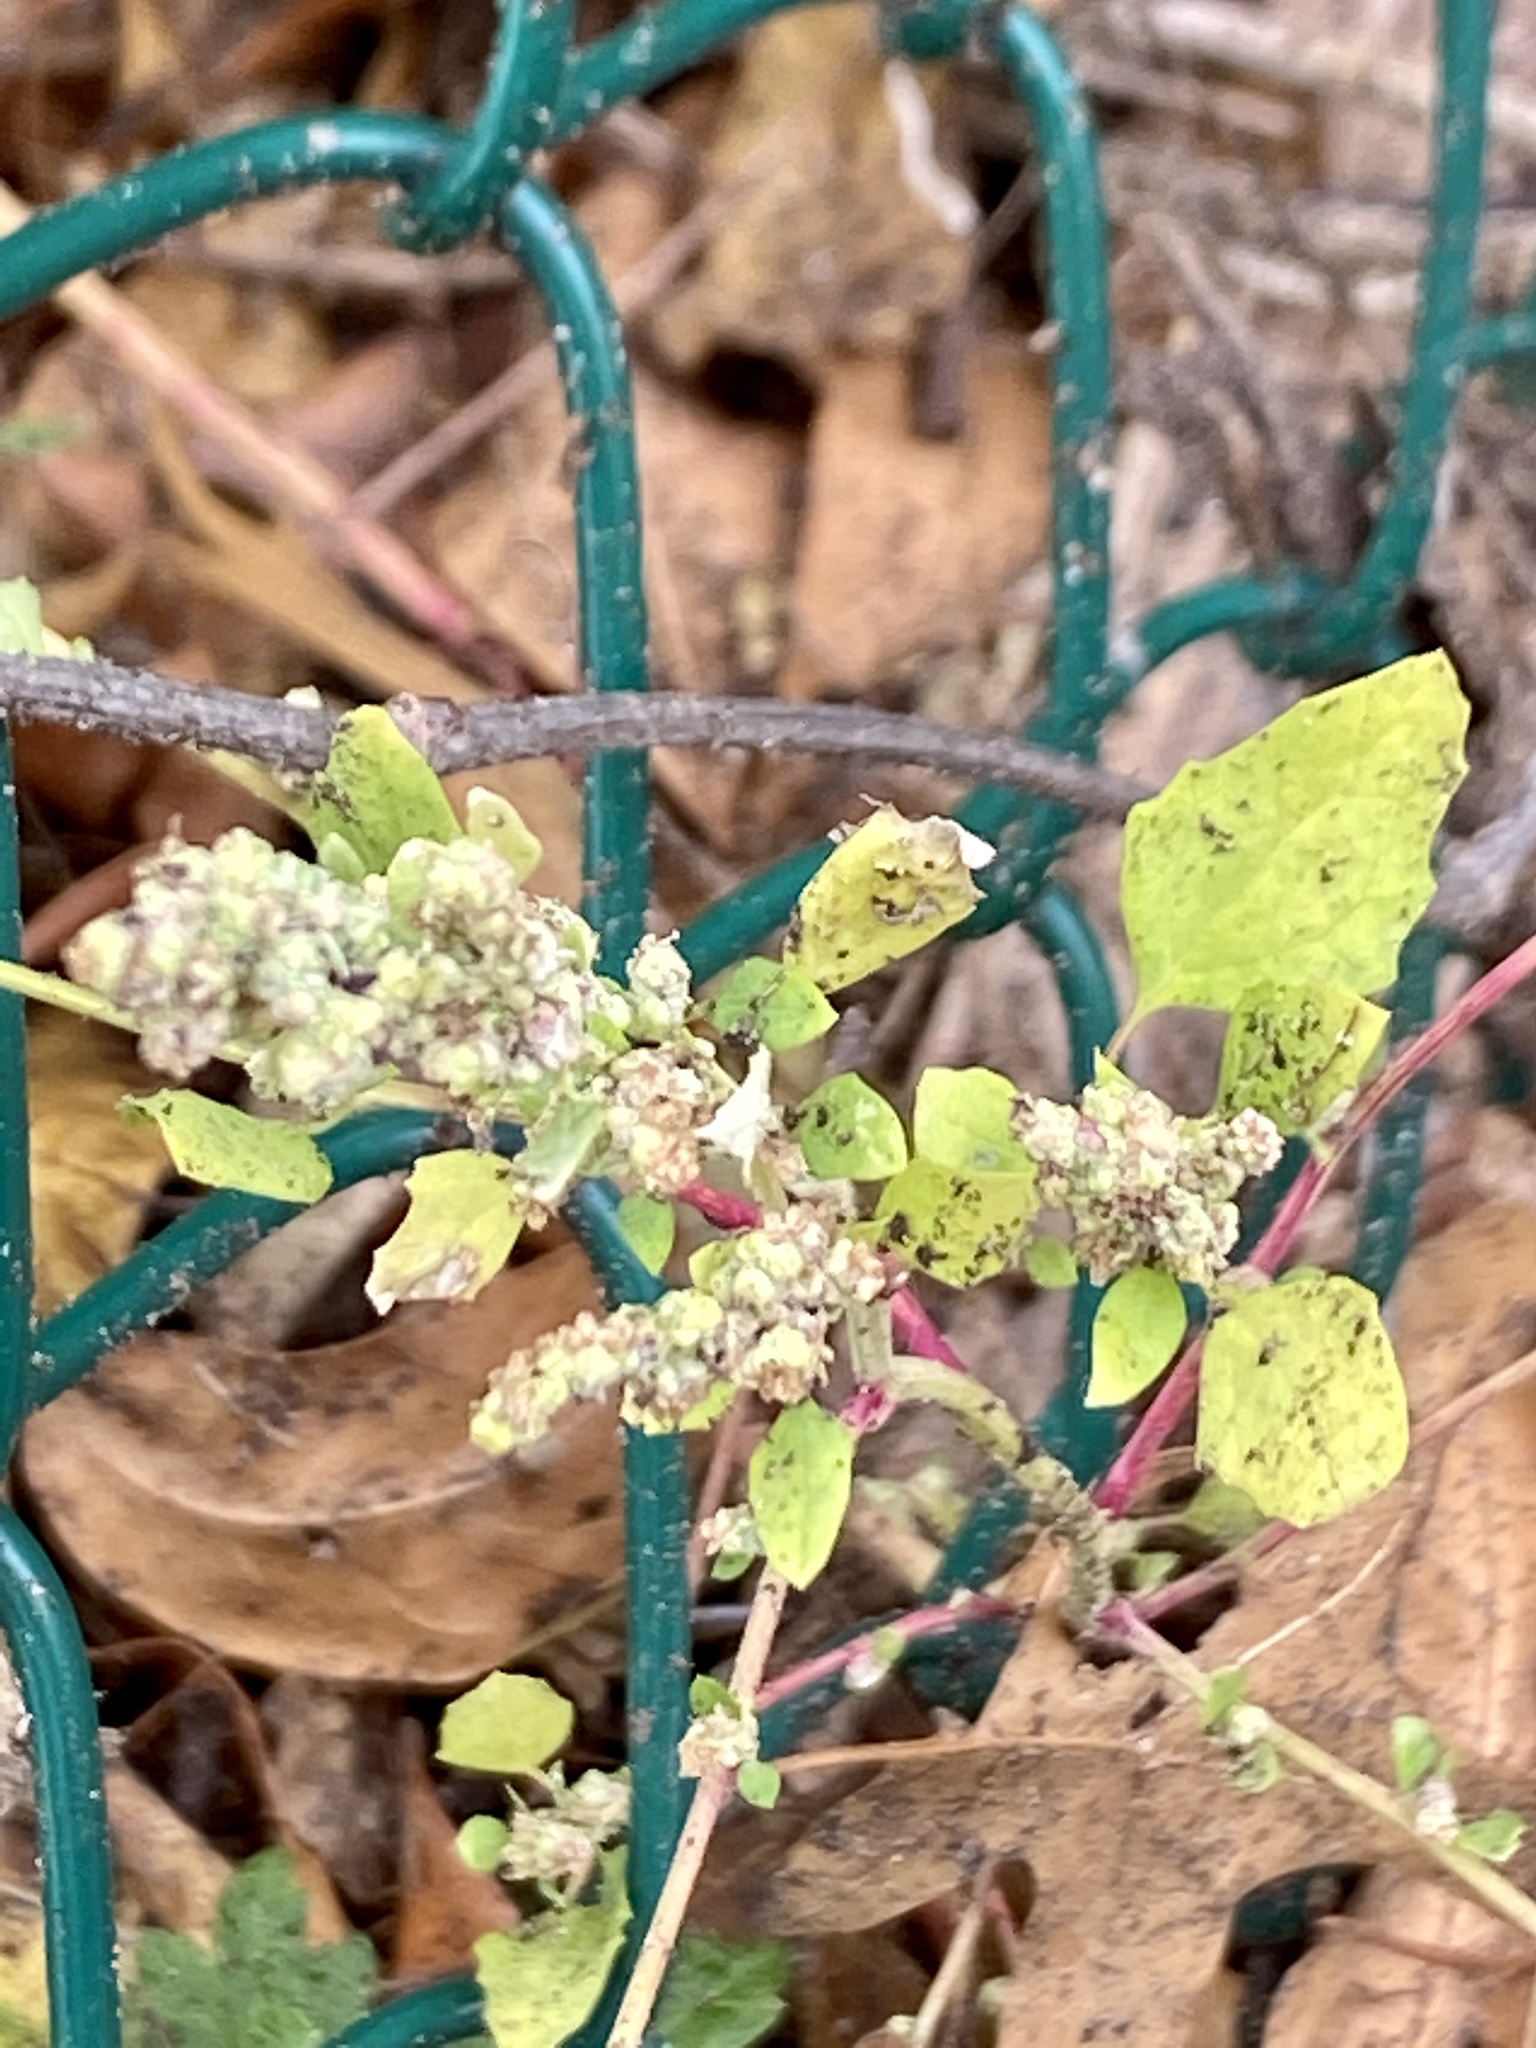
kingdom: Plantae
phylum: Tracheophyta
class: Magnoliopsida
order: Caryophyllales
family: Amaranthaceae
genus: Chenopodium
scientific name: Chenopodium album
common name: Fat-hen
